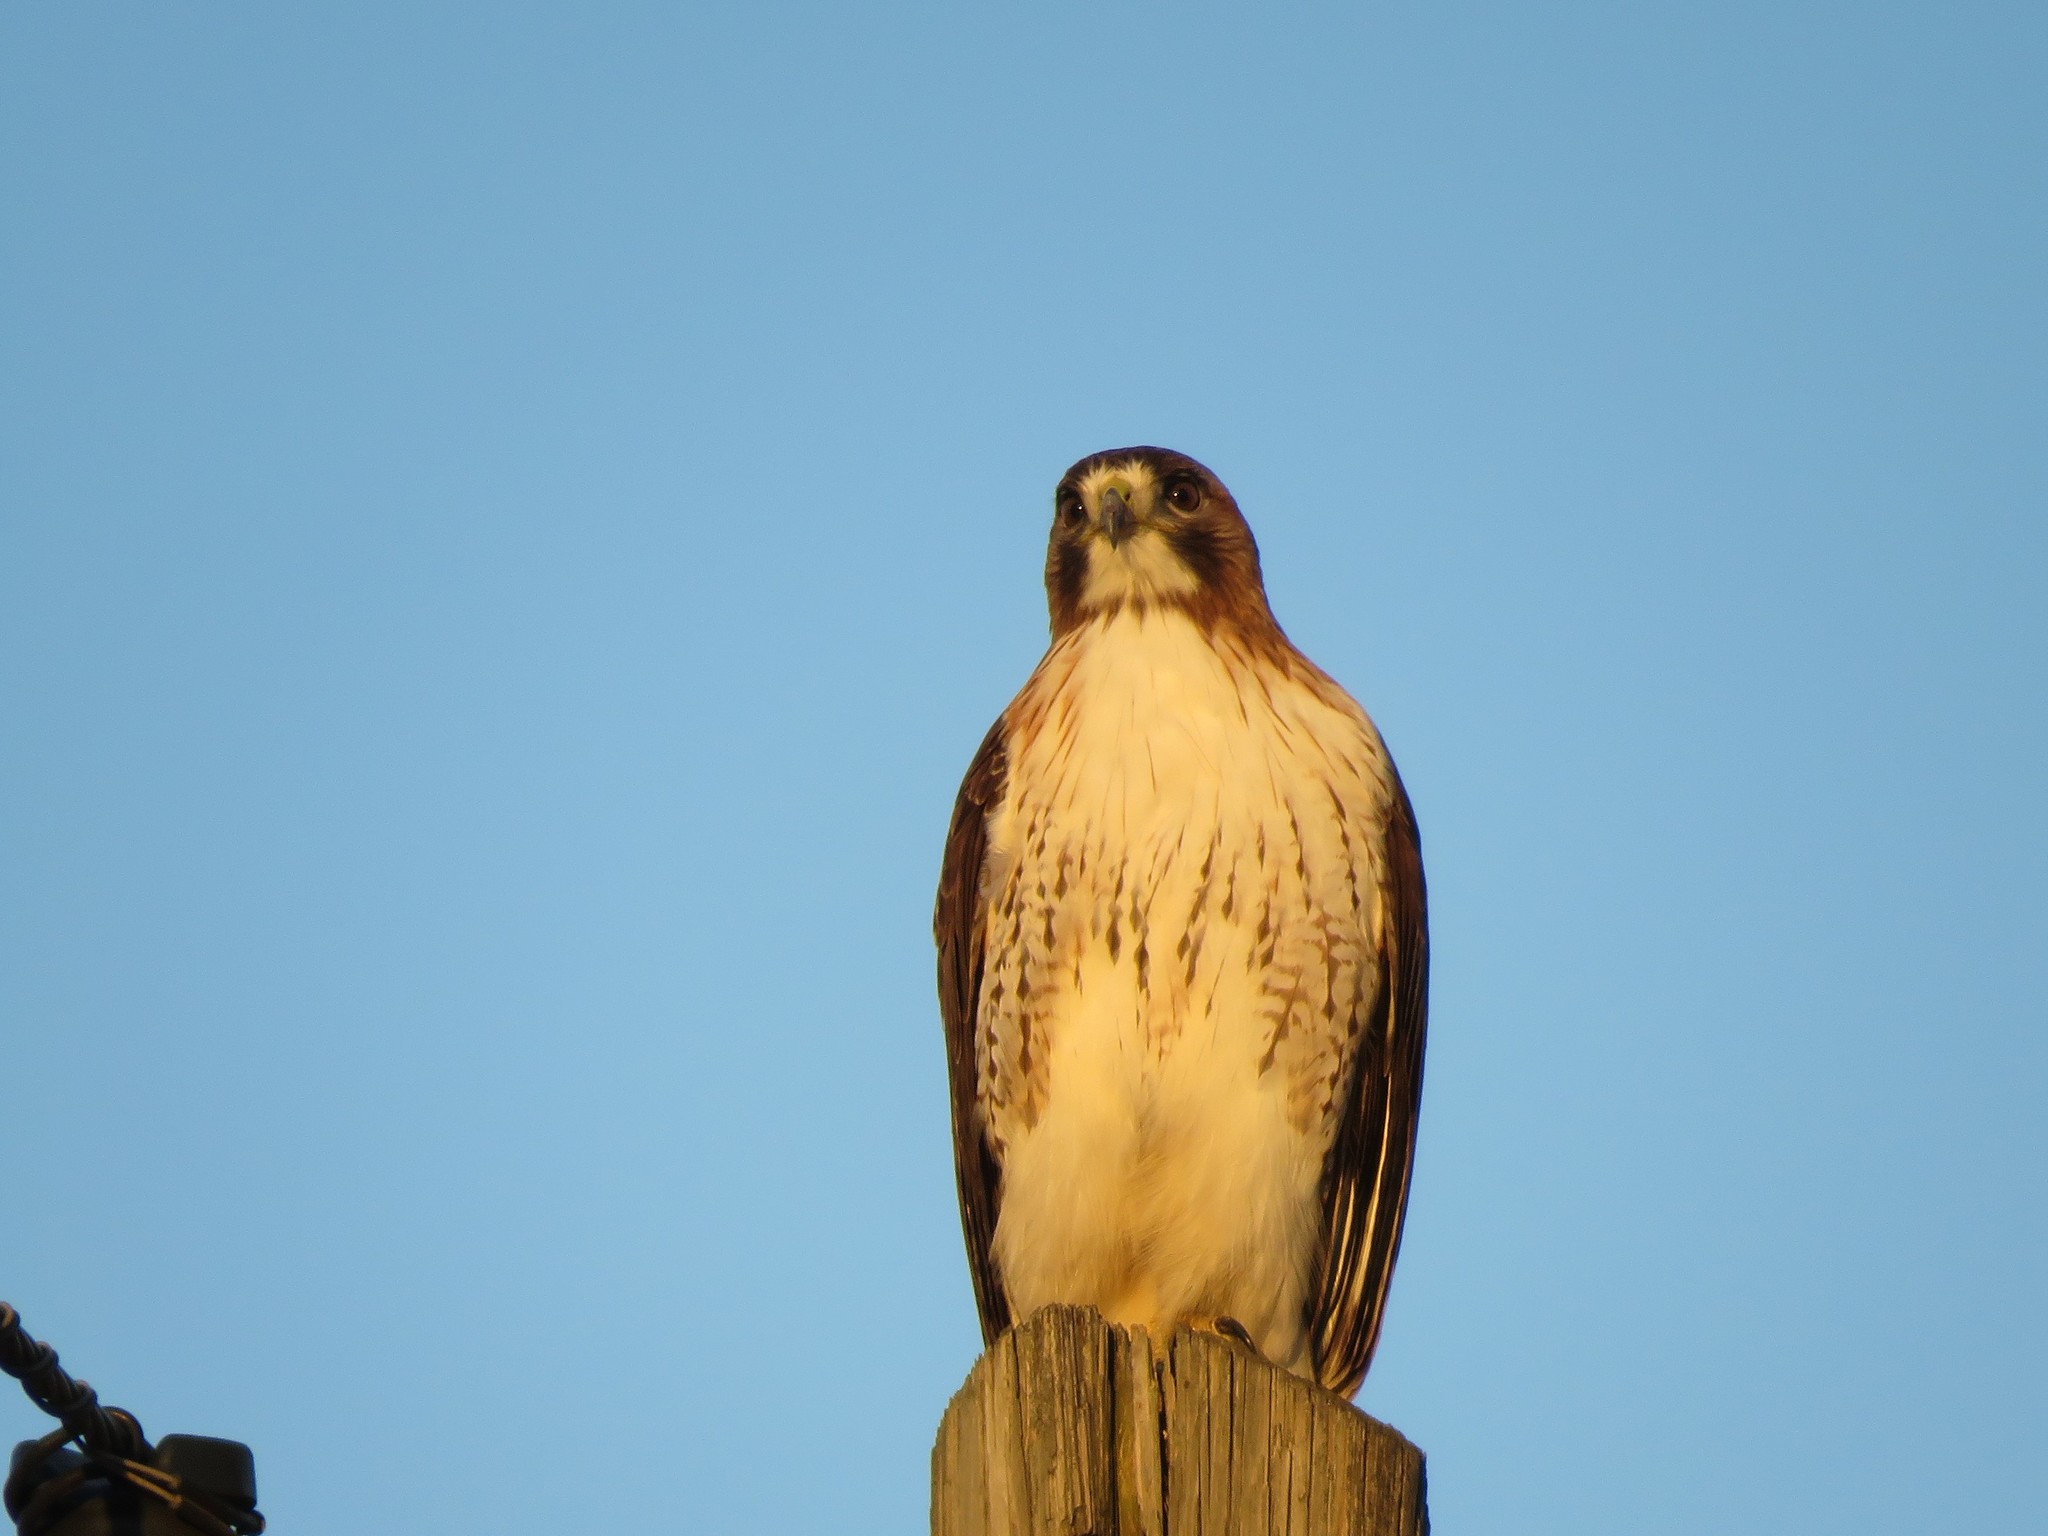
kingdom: Animalia
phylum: Chordata
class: Aves
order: Accipitriformes
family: Accipitridae
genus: Buteo
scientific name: Buteo jamaicensis
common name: Red-tailed hawk
